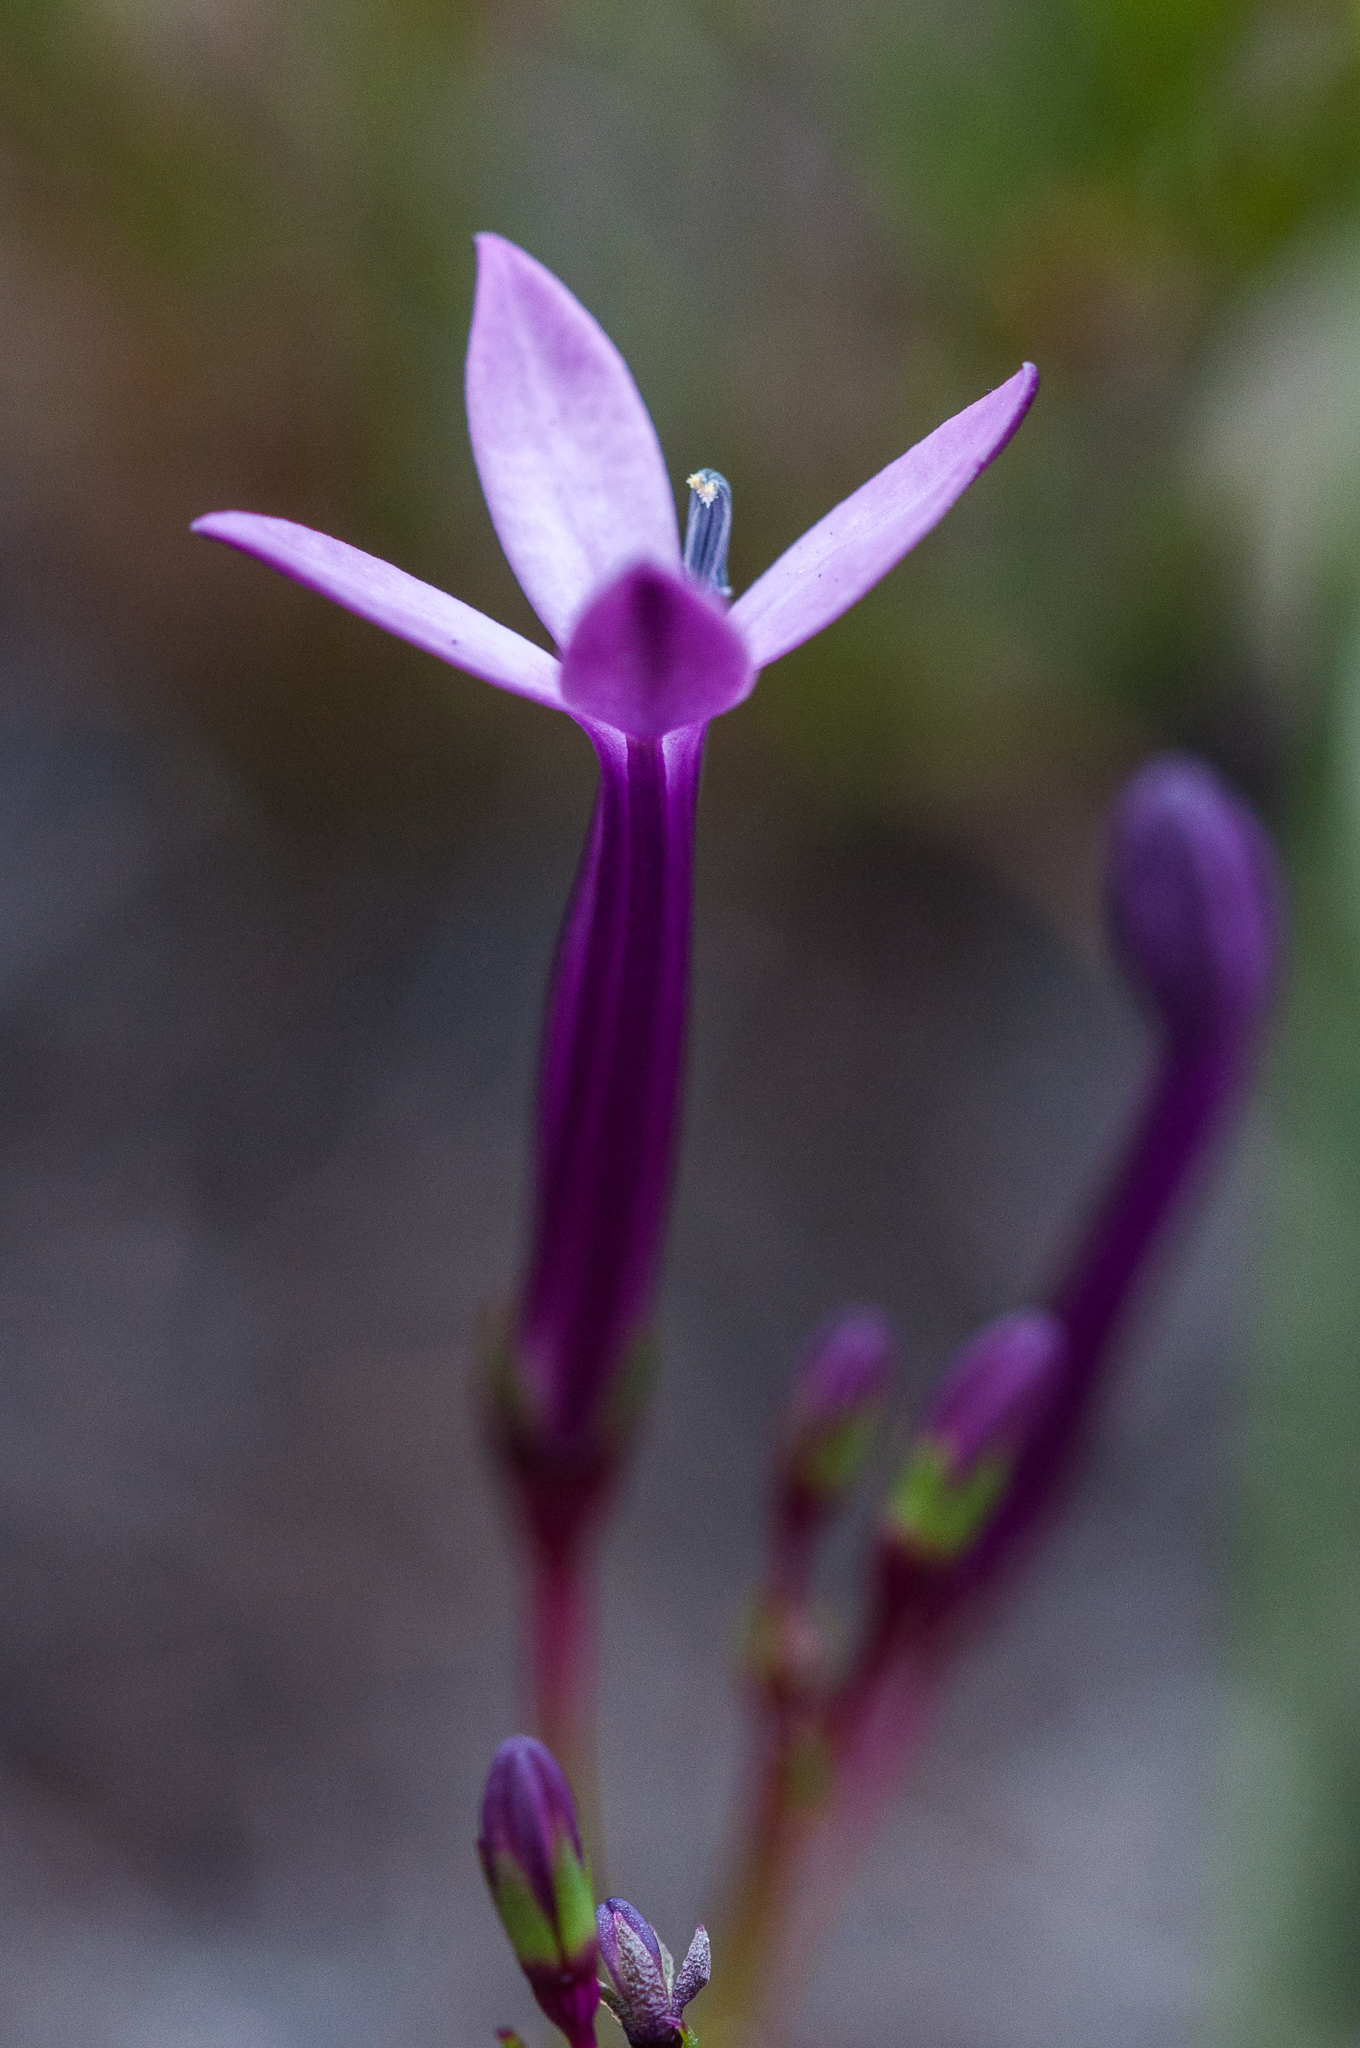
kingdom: Plantae
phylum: Tracheophyta
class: Magnoliopsida
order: Asterales
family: Campanulaceae
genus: Lobelia
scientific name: Lobelia stenosiphon
